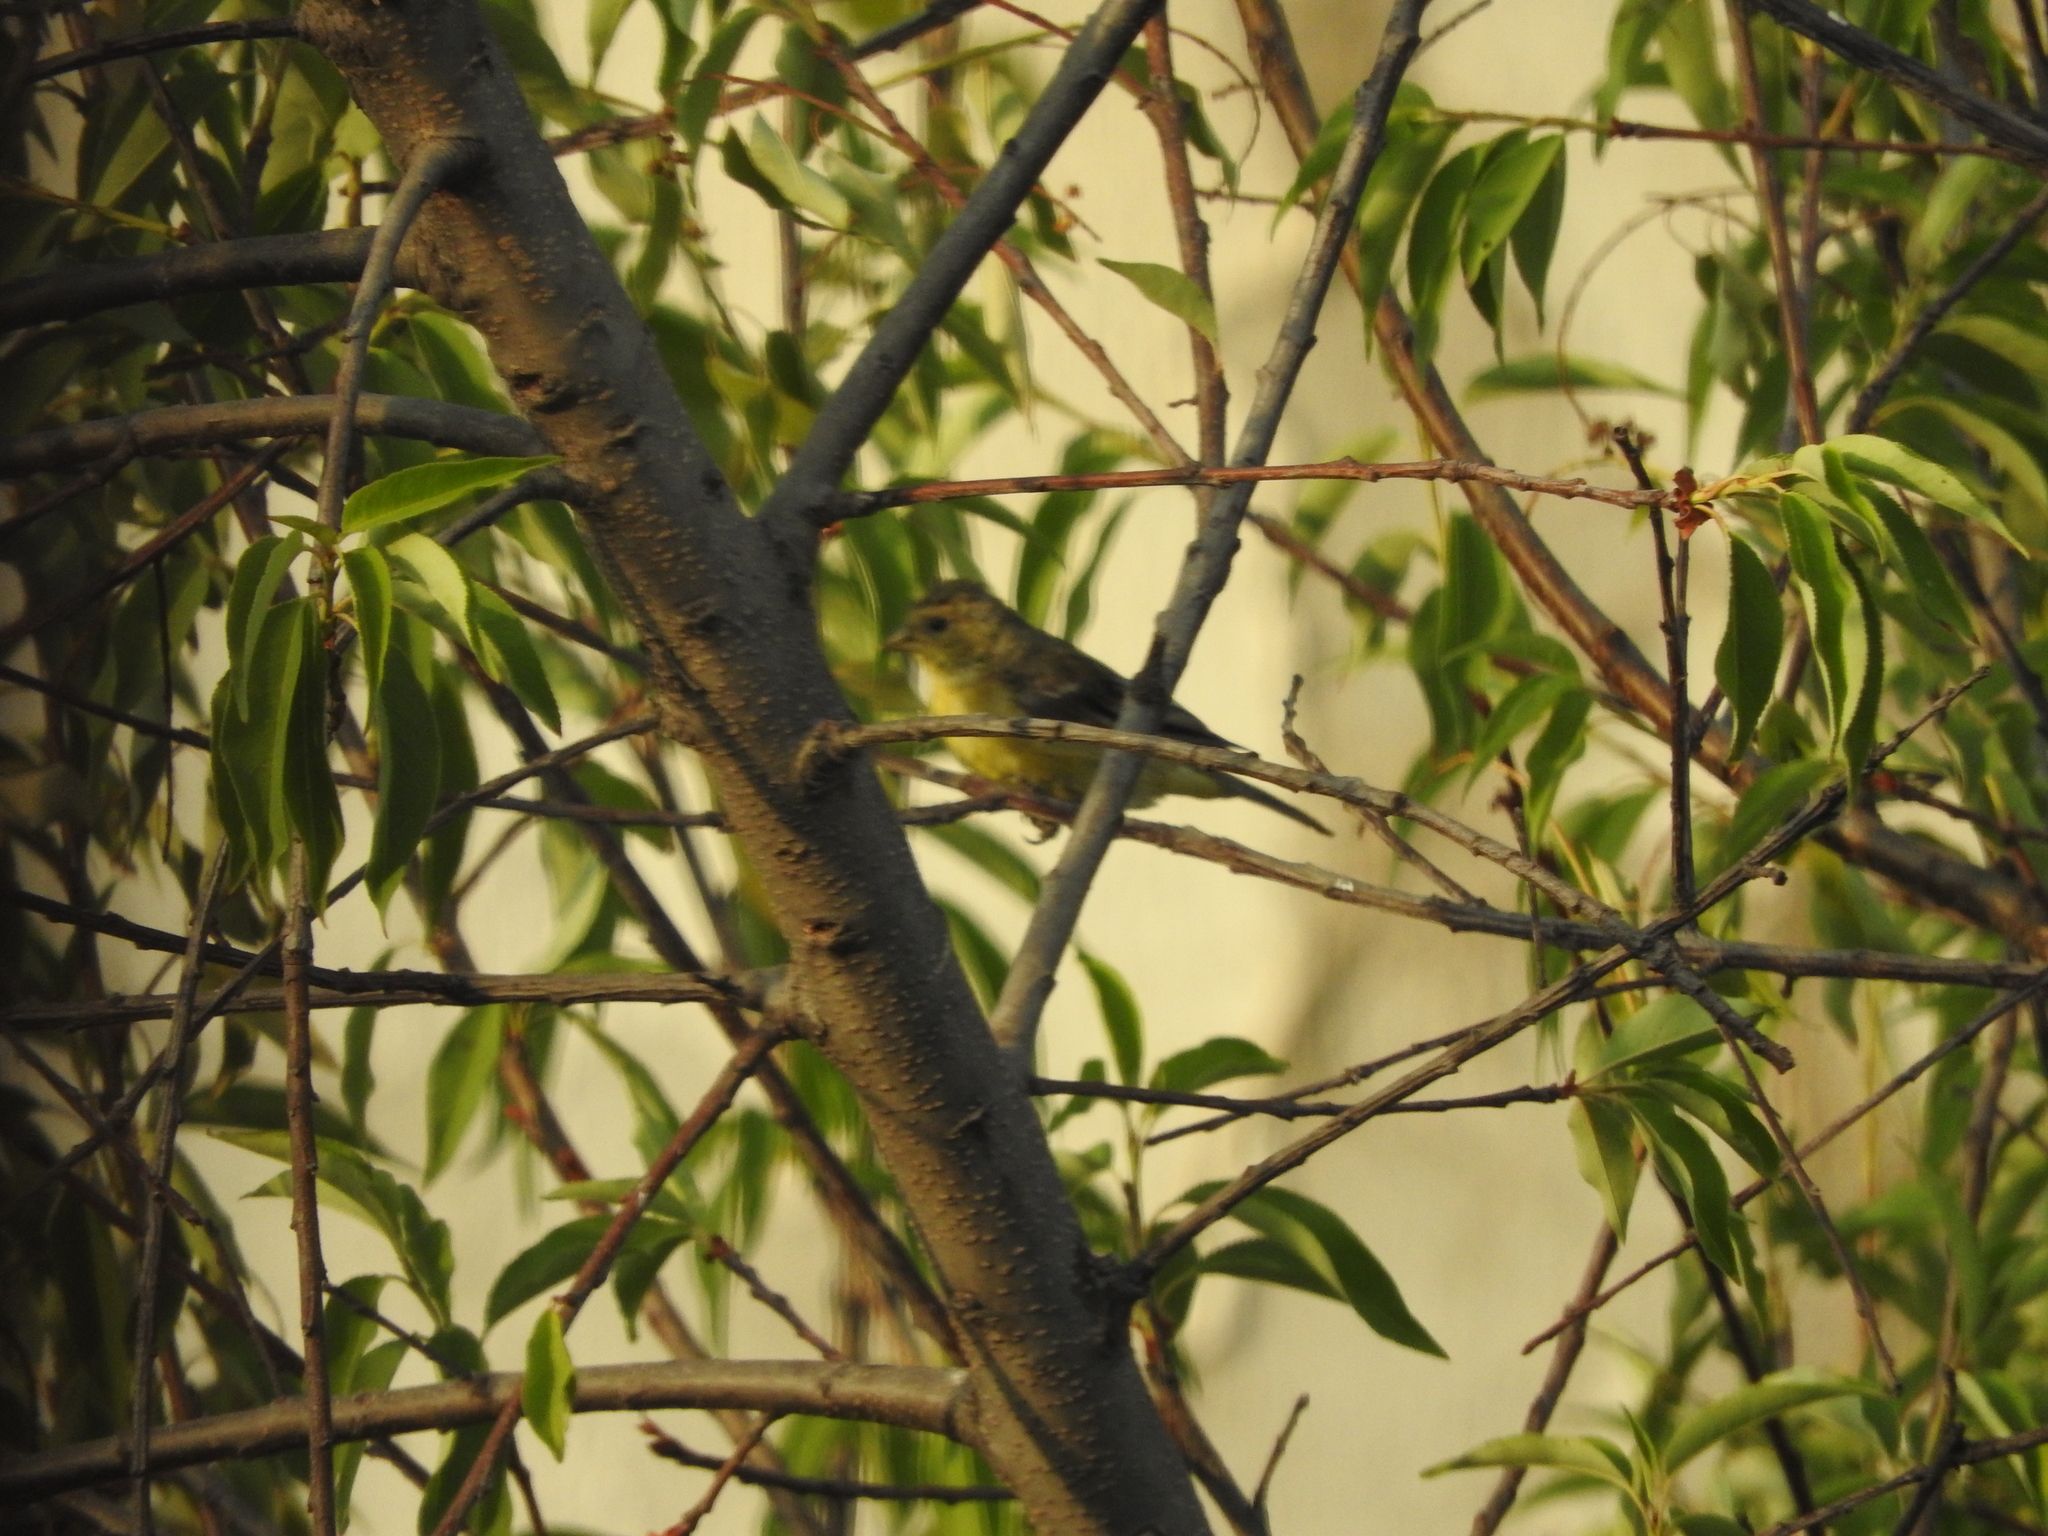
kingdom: Animalia
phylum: Chordata
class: Aves
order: Passeriformes
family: Thraupidae
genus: Sporophila
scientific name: Sporophila torqueola
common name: White-collared seedeater
